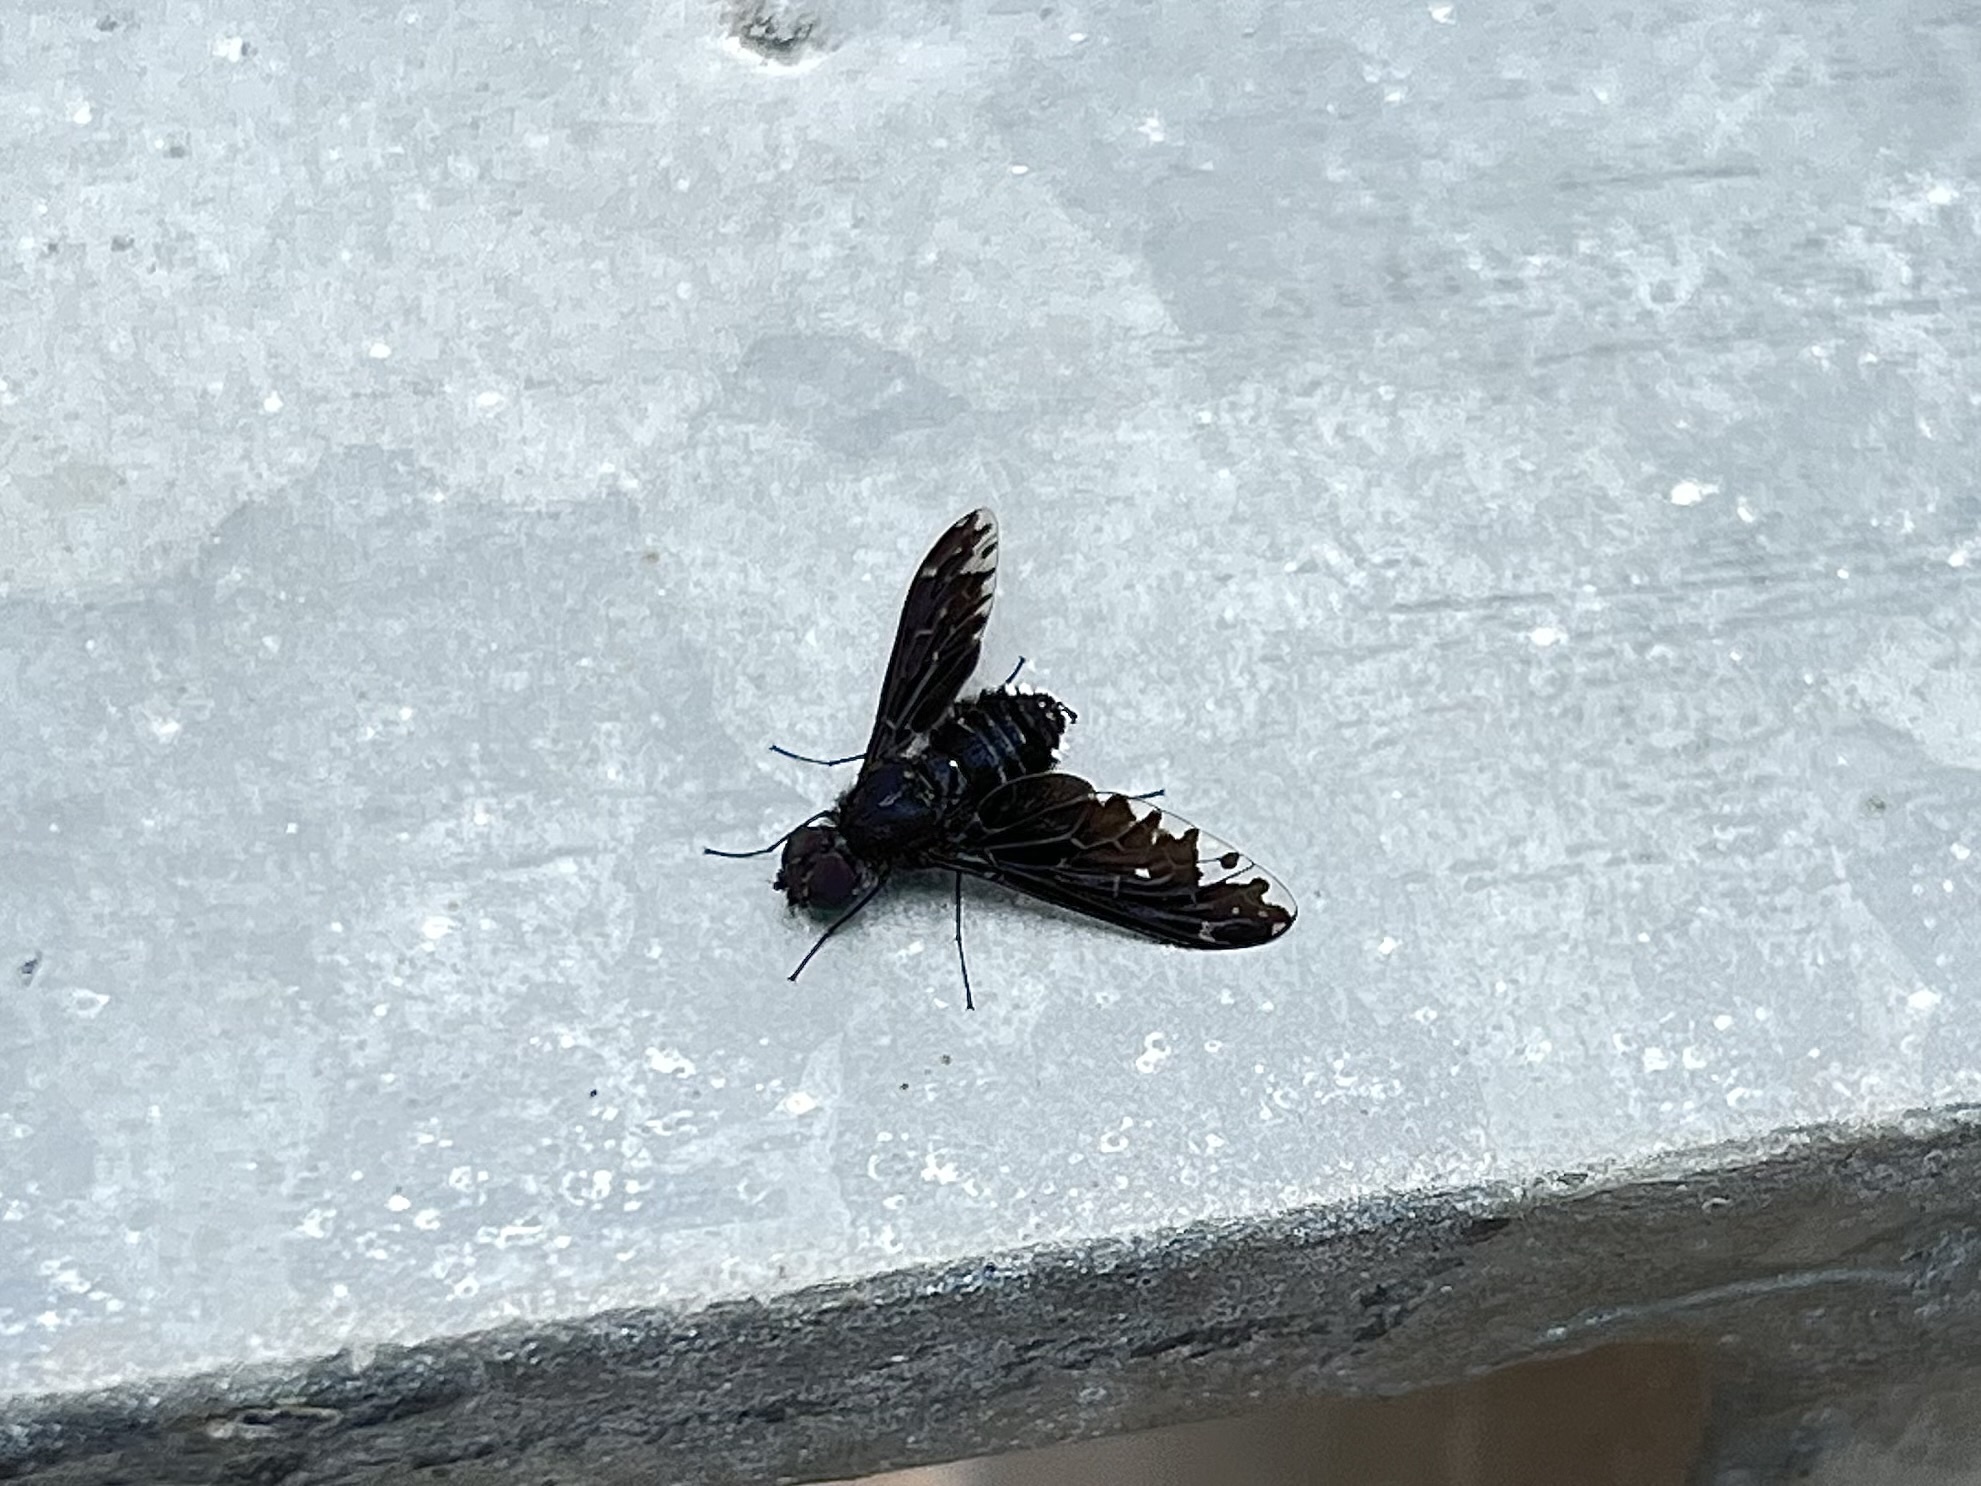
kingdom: Animalia
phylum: Arthropoda
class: Insecta
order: Diptera
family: Bombyliidae
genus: Anthrax
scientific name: Anthrax maculata
